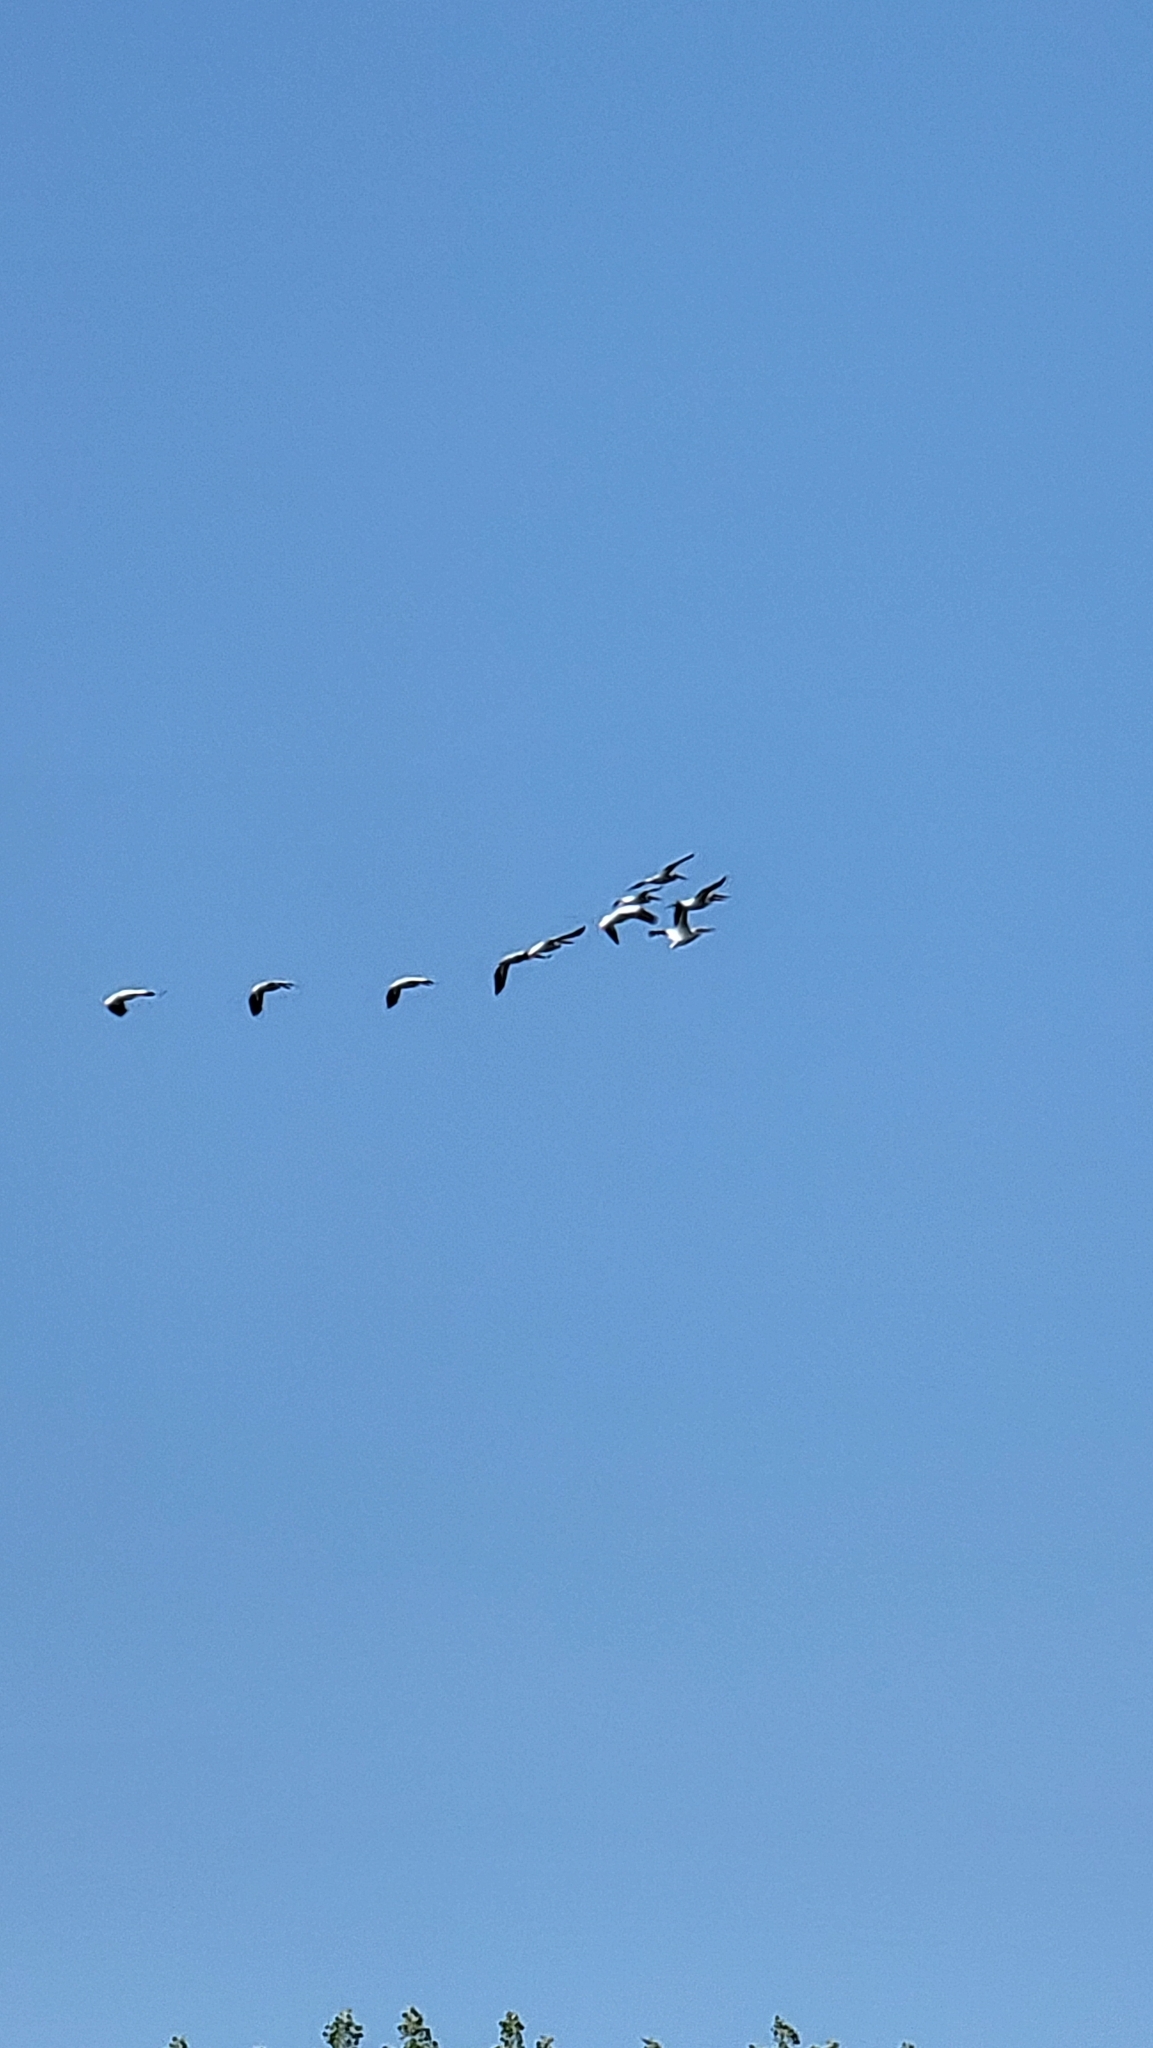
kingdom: Animalia
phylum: Chordata
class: Aves
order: Pelecaniformes
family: Pelecanidae
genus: Pelecanus
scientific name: Pelecanus erythrorhynchos
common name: American white pelican
